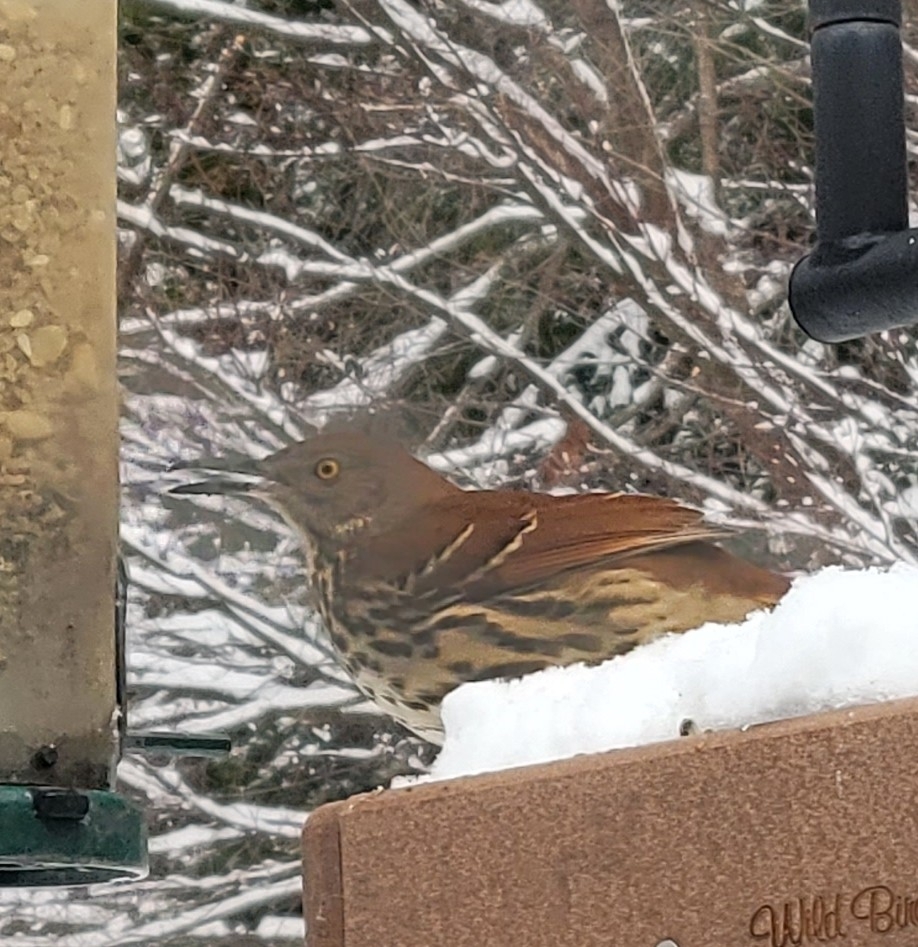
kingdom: Animalia
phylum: Chordata
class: Aves
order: Passeriformes
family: Mimidae
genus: Toxostoma
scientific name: Toxostoma rufum
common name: Brown thrasher
